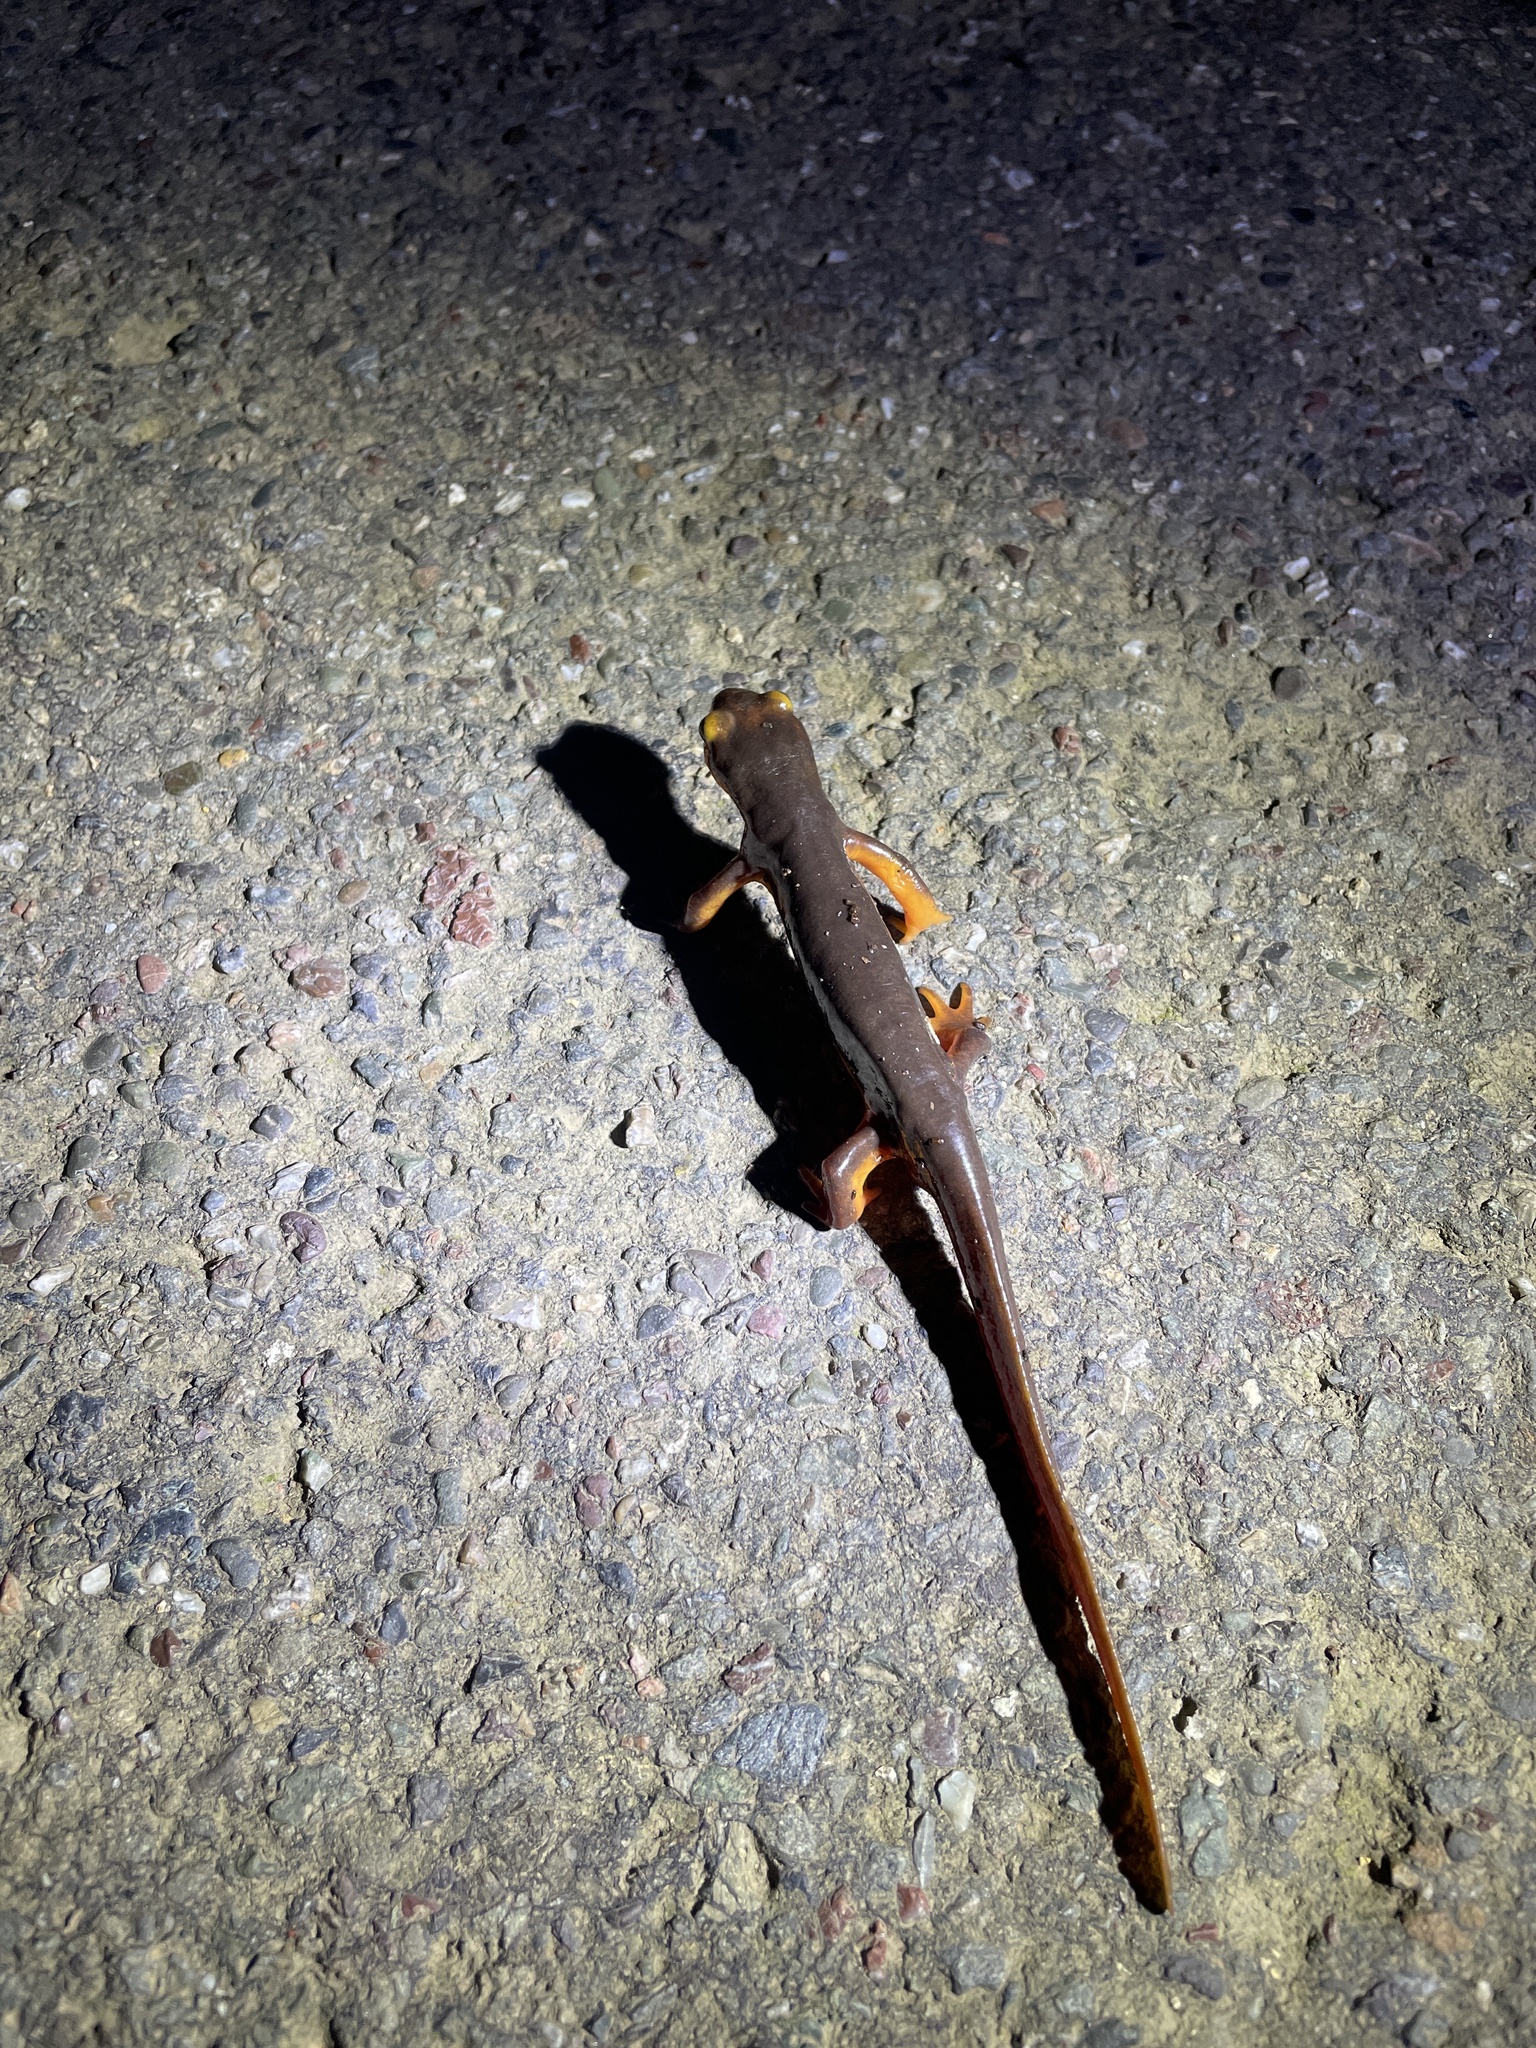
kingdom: Animalia
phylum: Chordata
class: Amphibia
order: Caudata
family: Salamandridae
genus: Taricha
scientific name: Taricha torosa
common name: California newt
